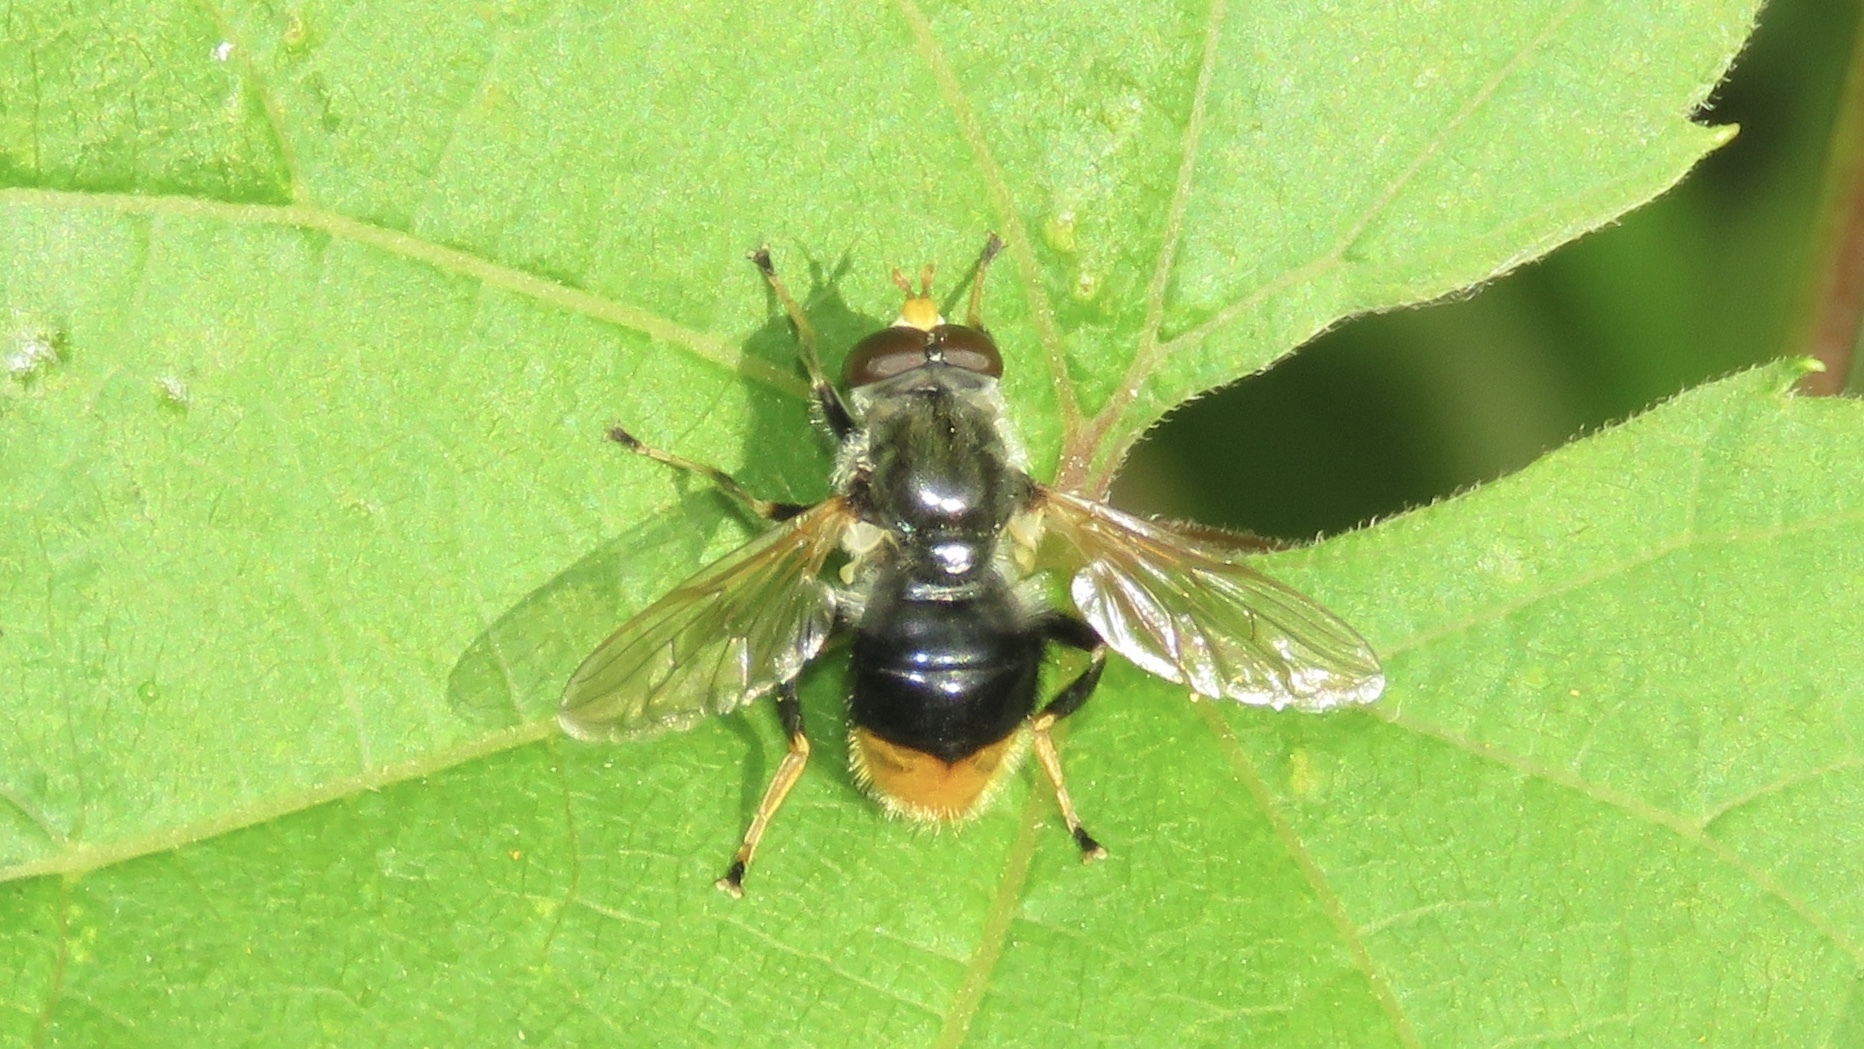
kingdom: Animalia
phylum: Arthropoda
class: Insecta
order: Diptera
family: Syrphidae
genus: Blera
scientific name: Blera analis
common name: Orange-tailed wood fly
